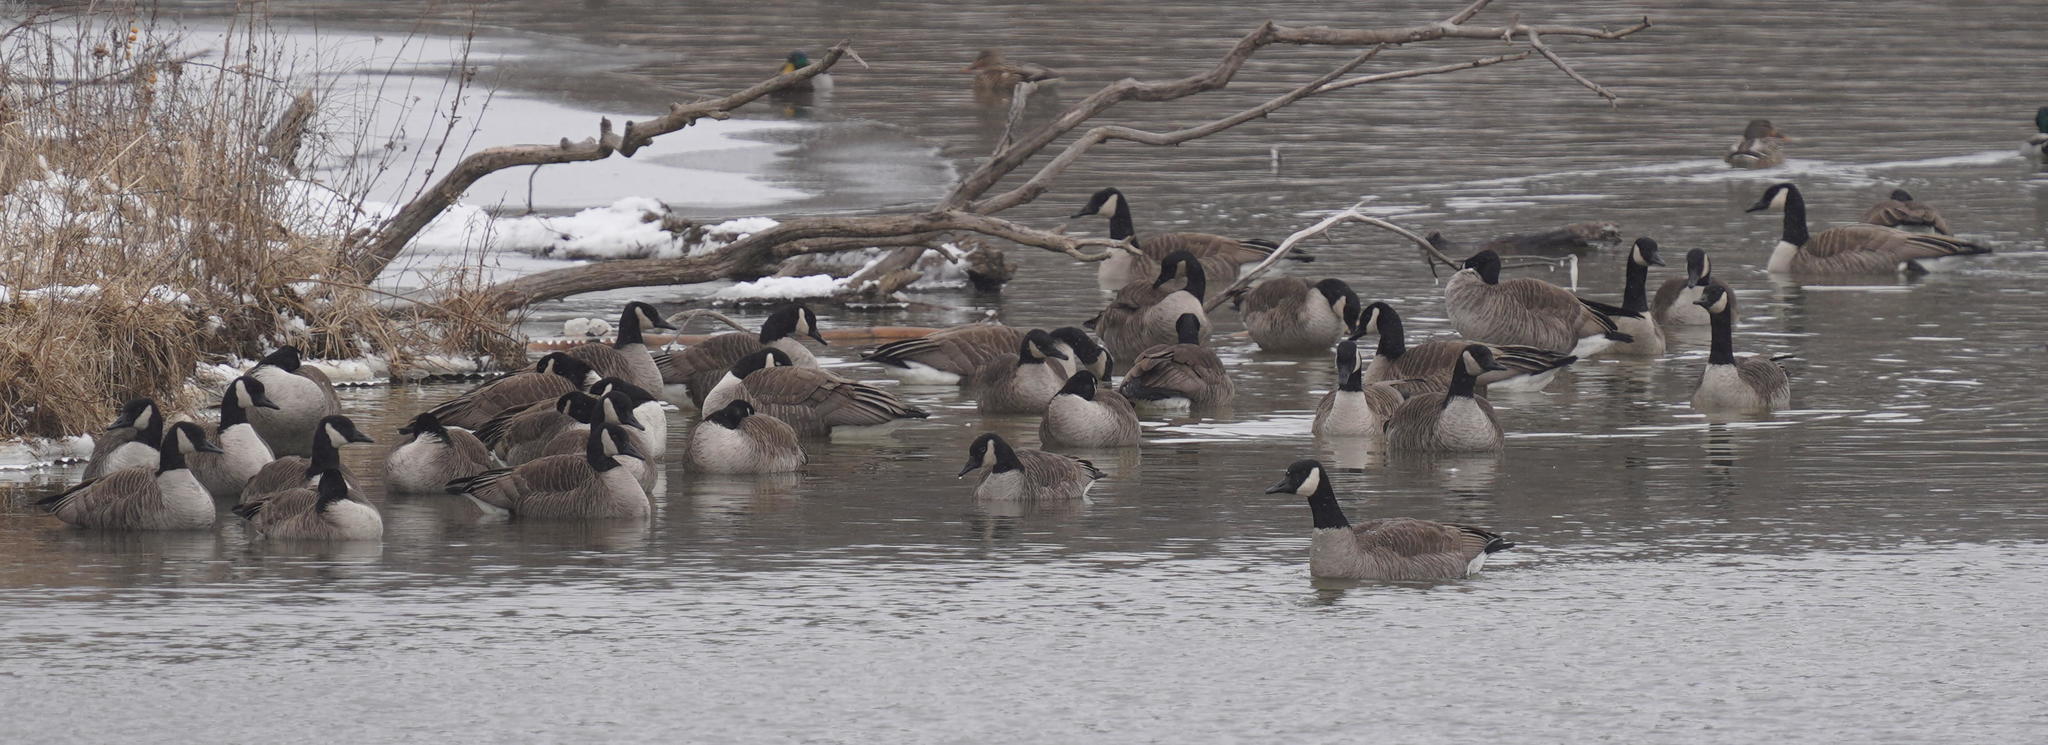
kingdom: Animalia
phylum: Chordata
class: Aves
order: Anseriformes
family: Anatidae
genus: Branta
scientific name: Branta canadensis
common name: Canada goose
